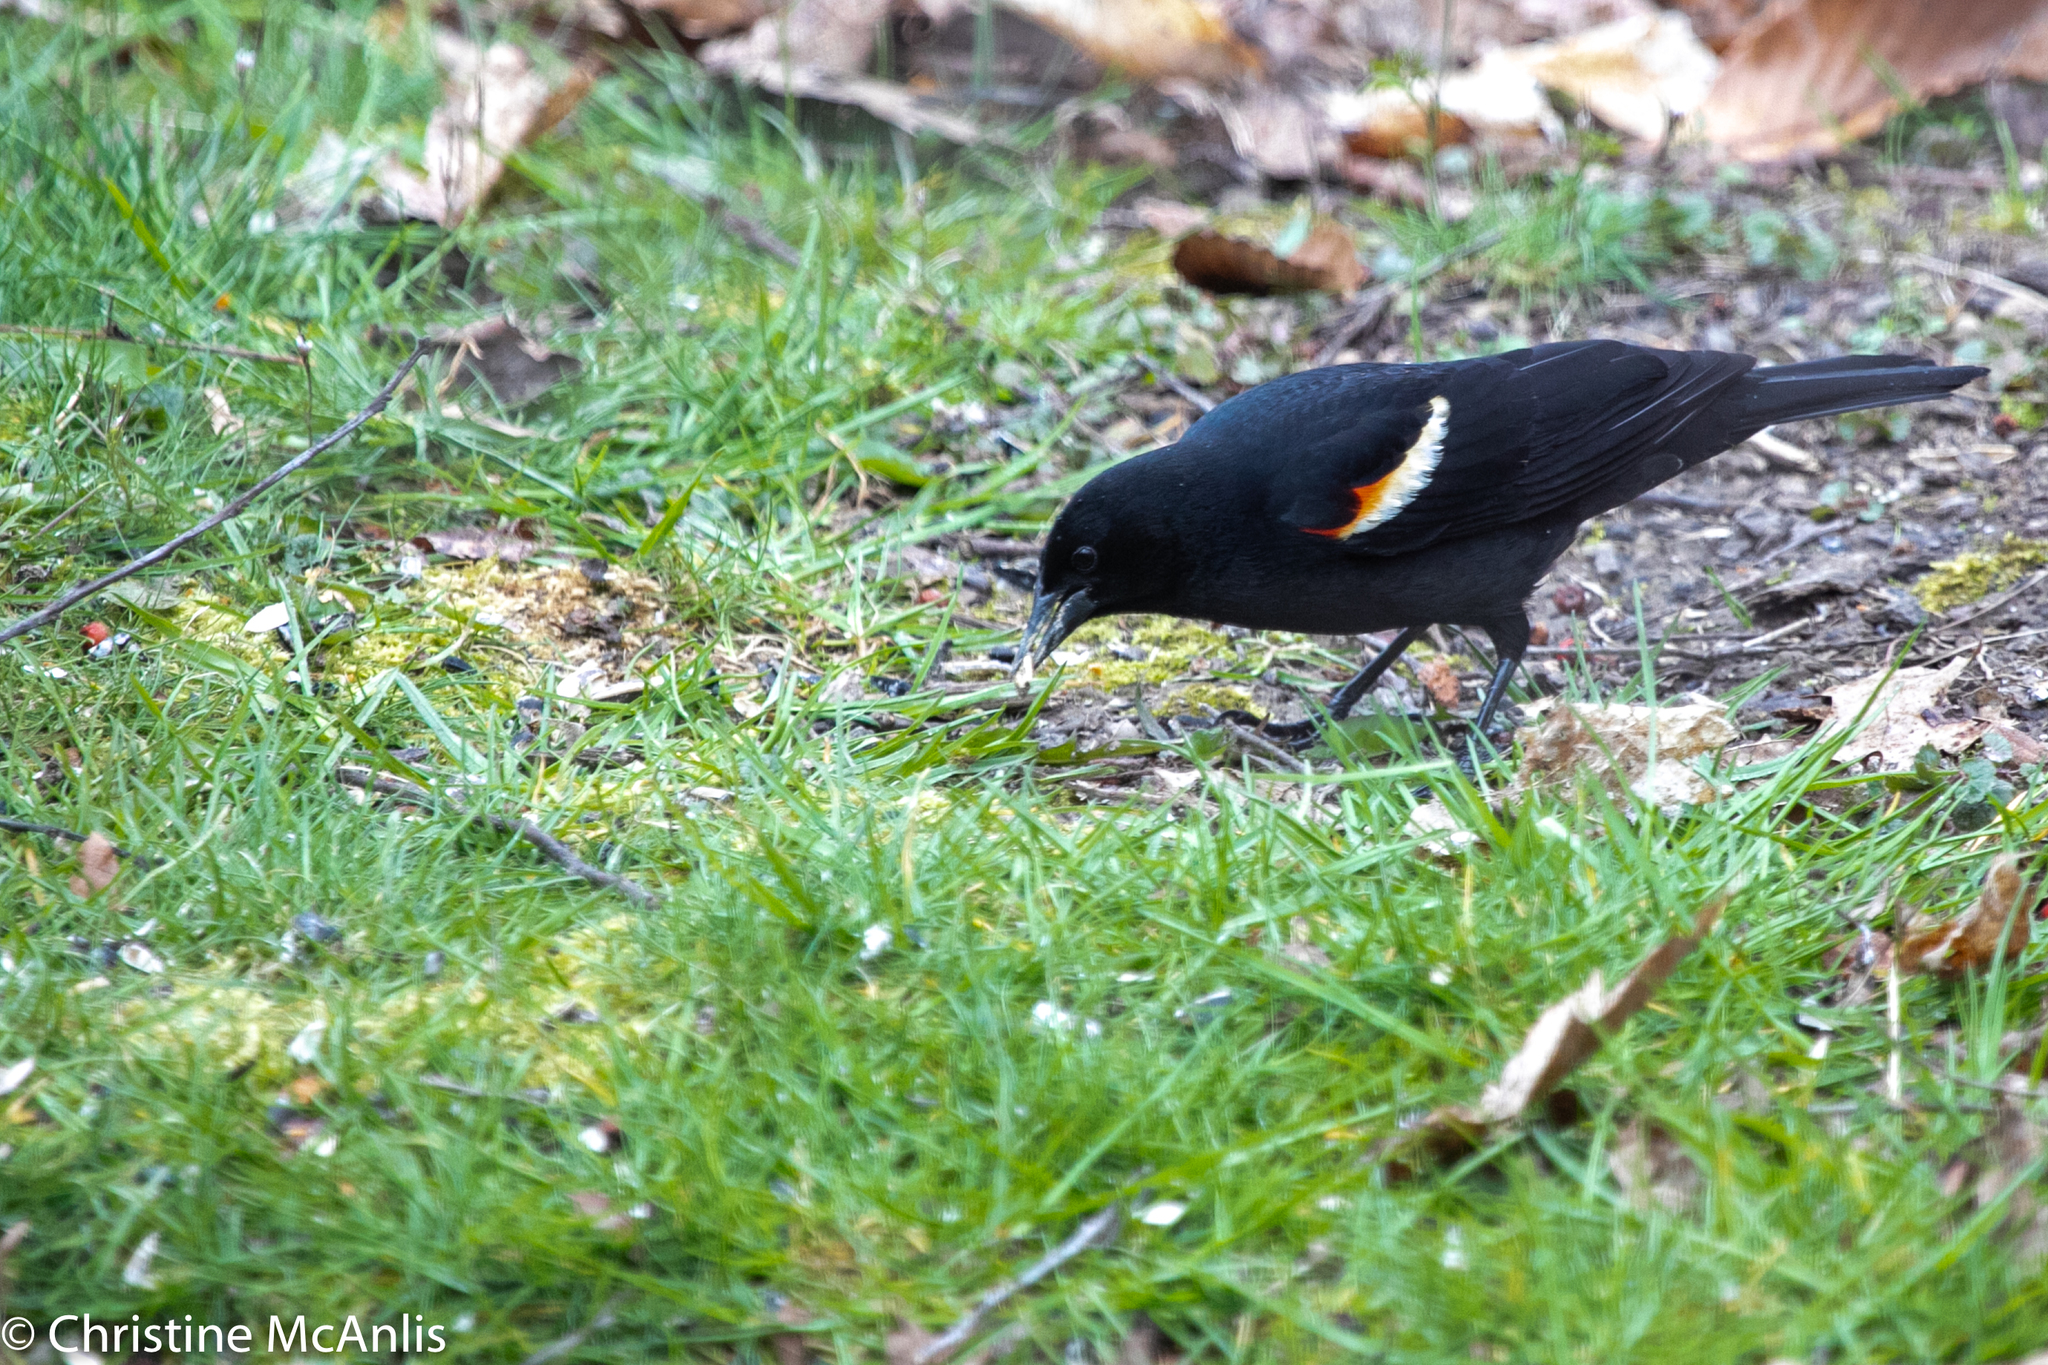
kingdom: Animalia
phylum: Chordata
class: Aves
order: Passeriformes
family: Icteridae
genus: Agelaius
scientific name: Agelaius phoeniceus
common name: Red-winged blackbird
